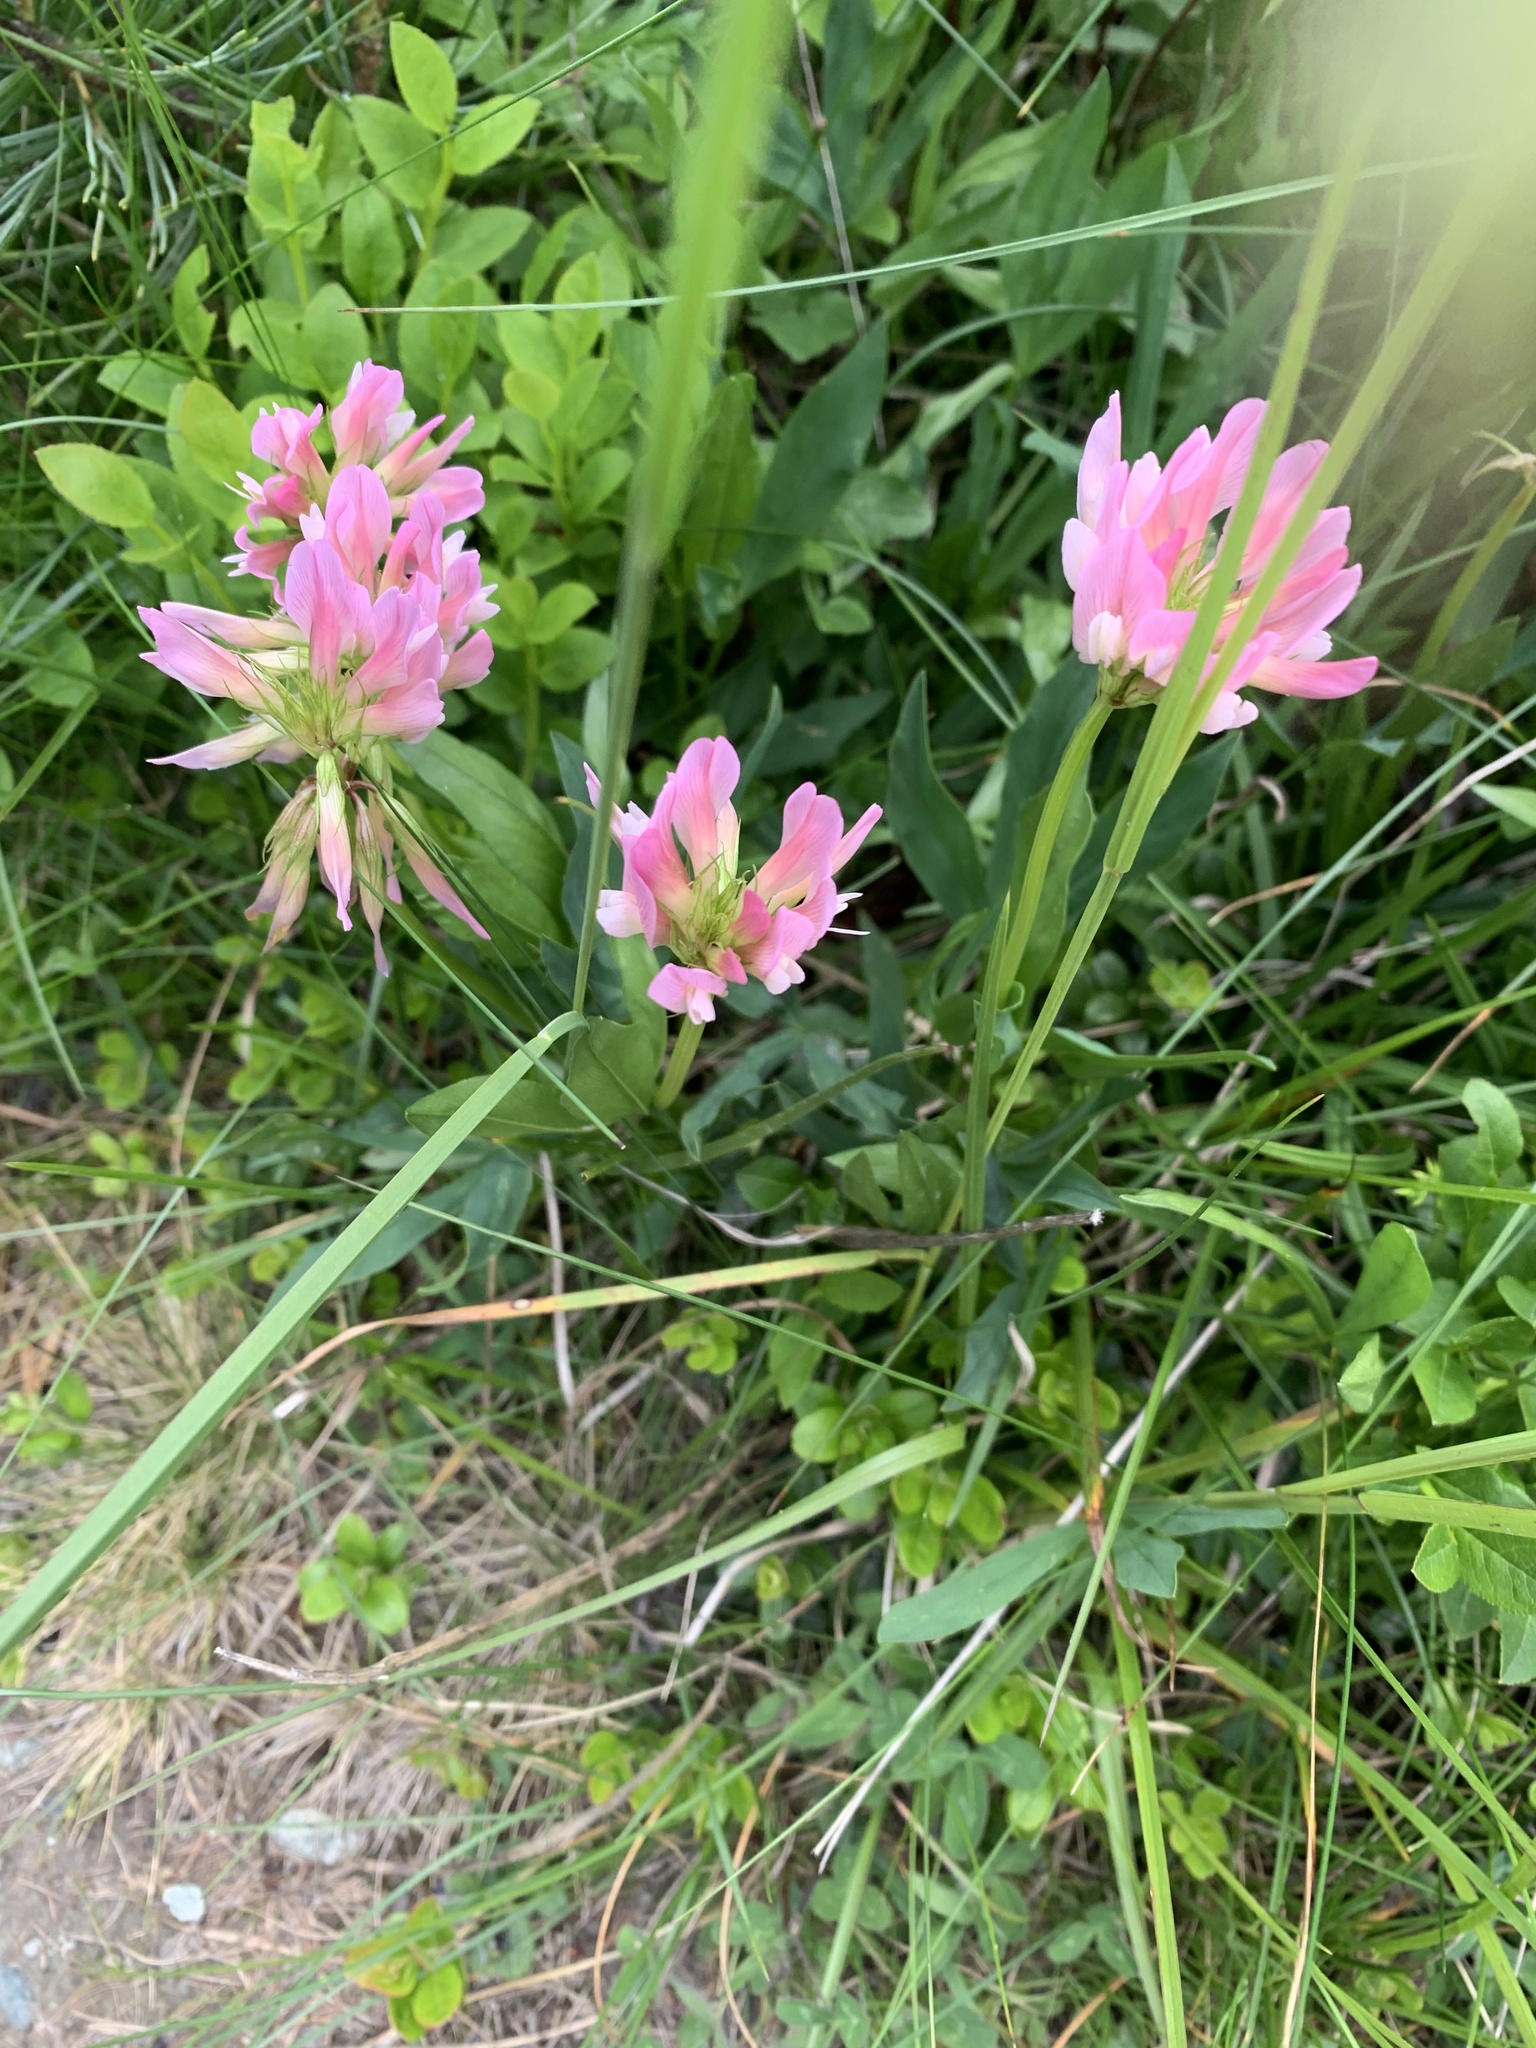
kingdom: Plantae
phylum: Tracheophyta
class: Magnoliopsida
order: Fabales
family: Fabaceae
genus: Trifolium
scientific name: Trifolium alpinum
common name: Alpine clover
